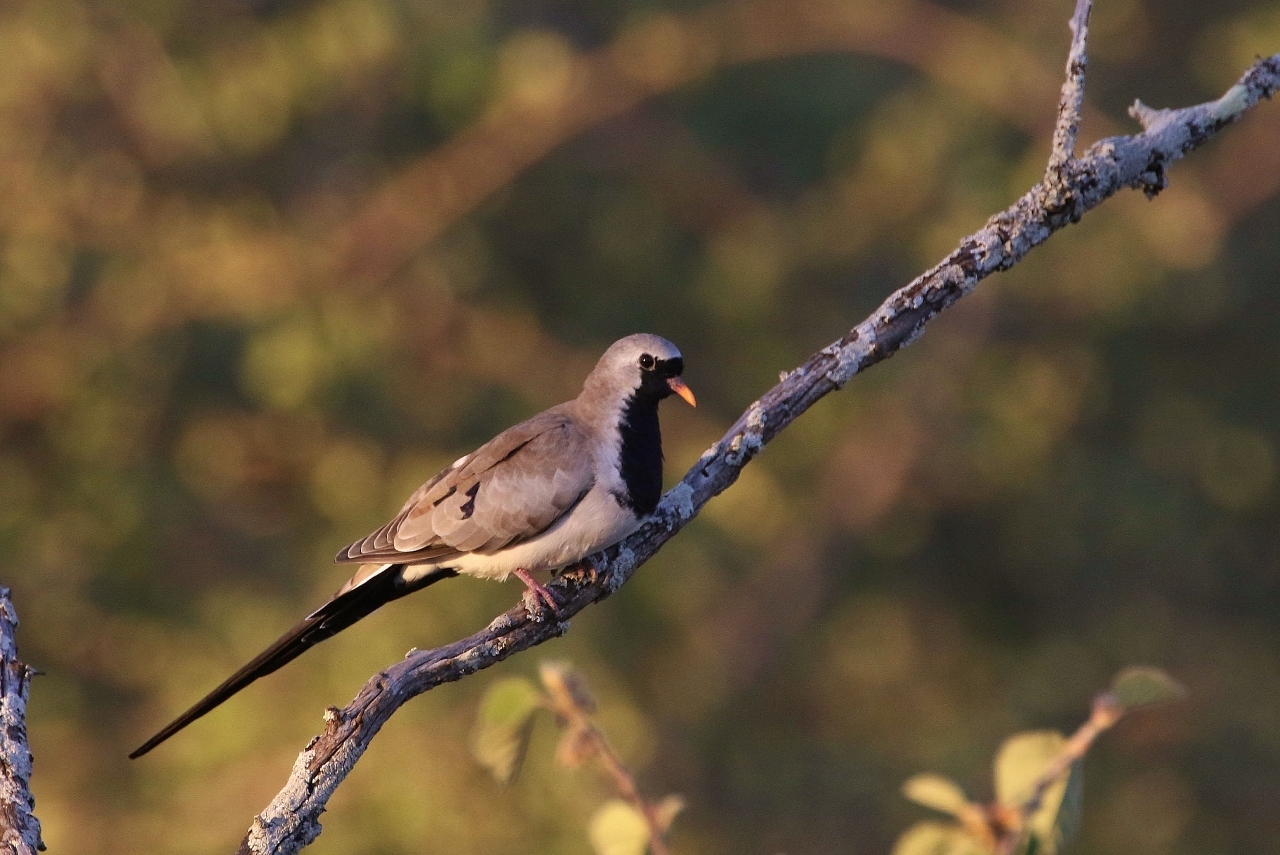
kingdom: Animalia
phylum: Chordata
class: Aves
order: Columbiformes
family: Columbidae
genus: Oena
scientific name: Oena capensis
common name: Namaqua dove
